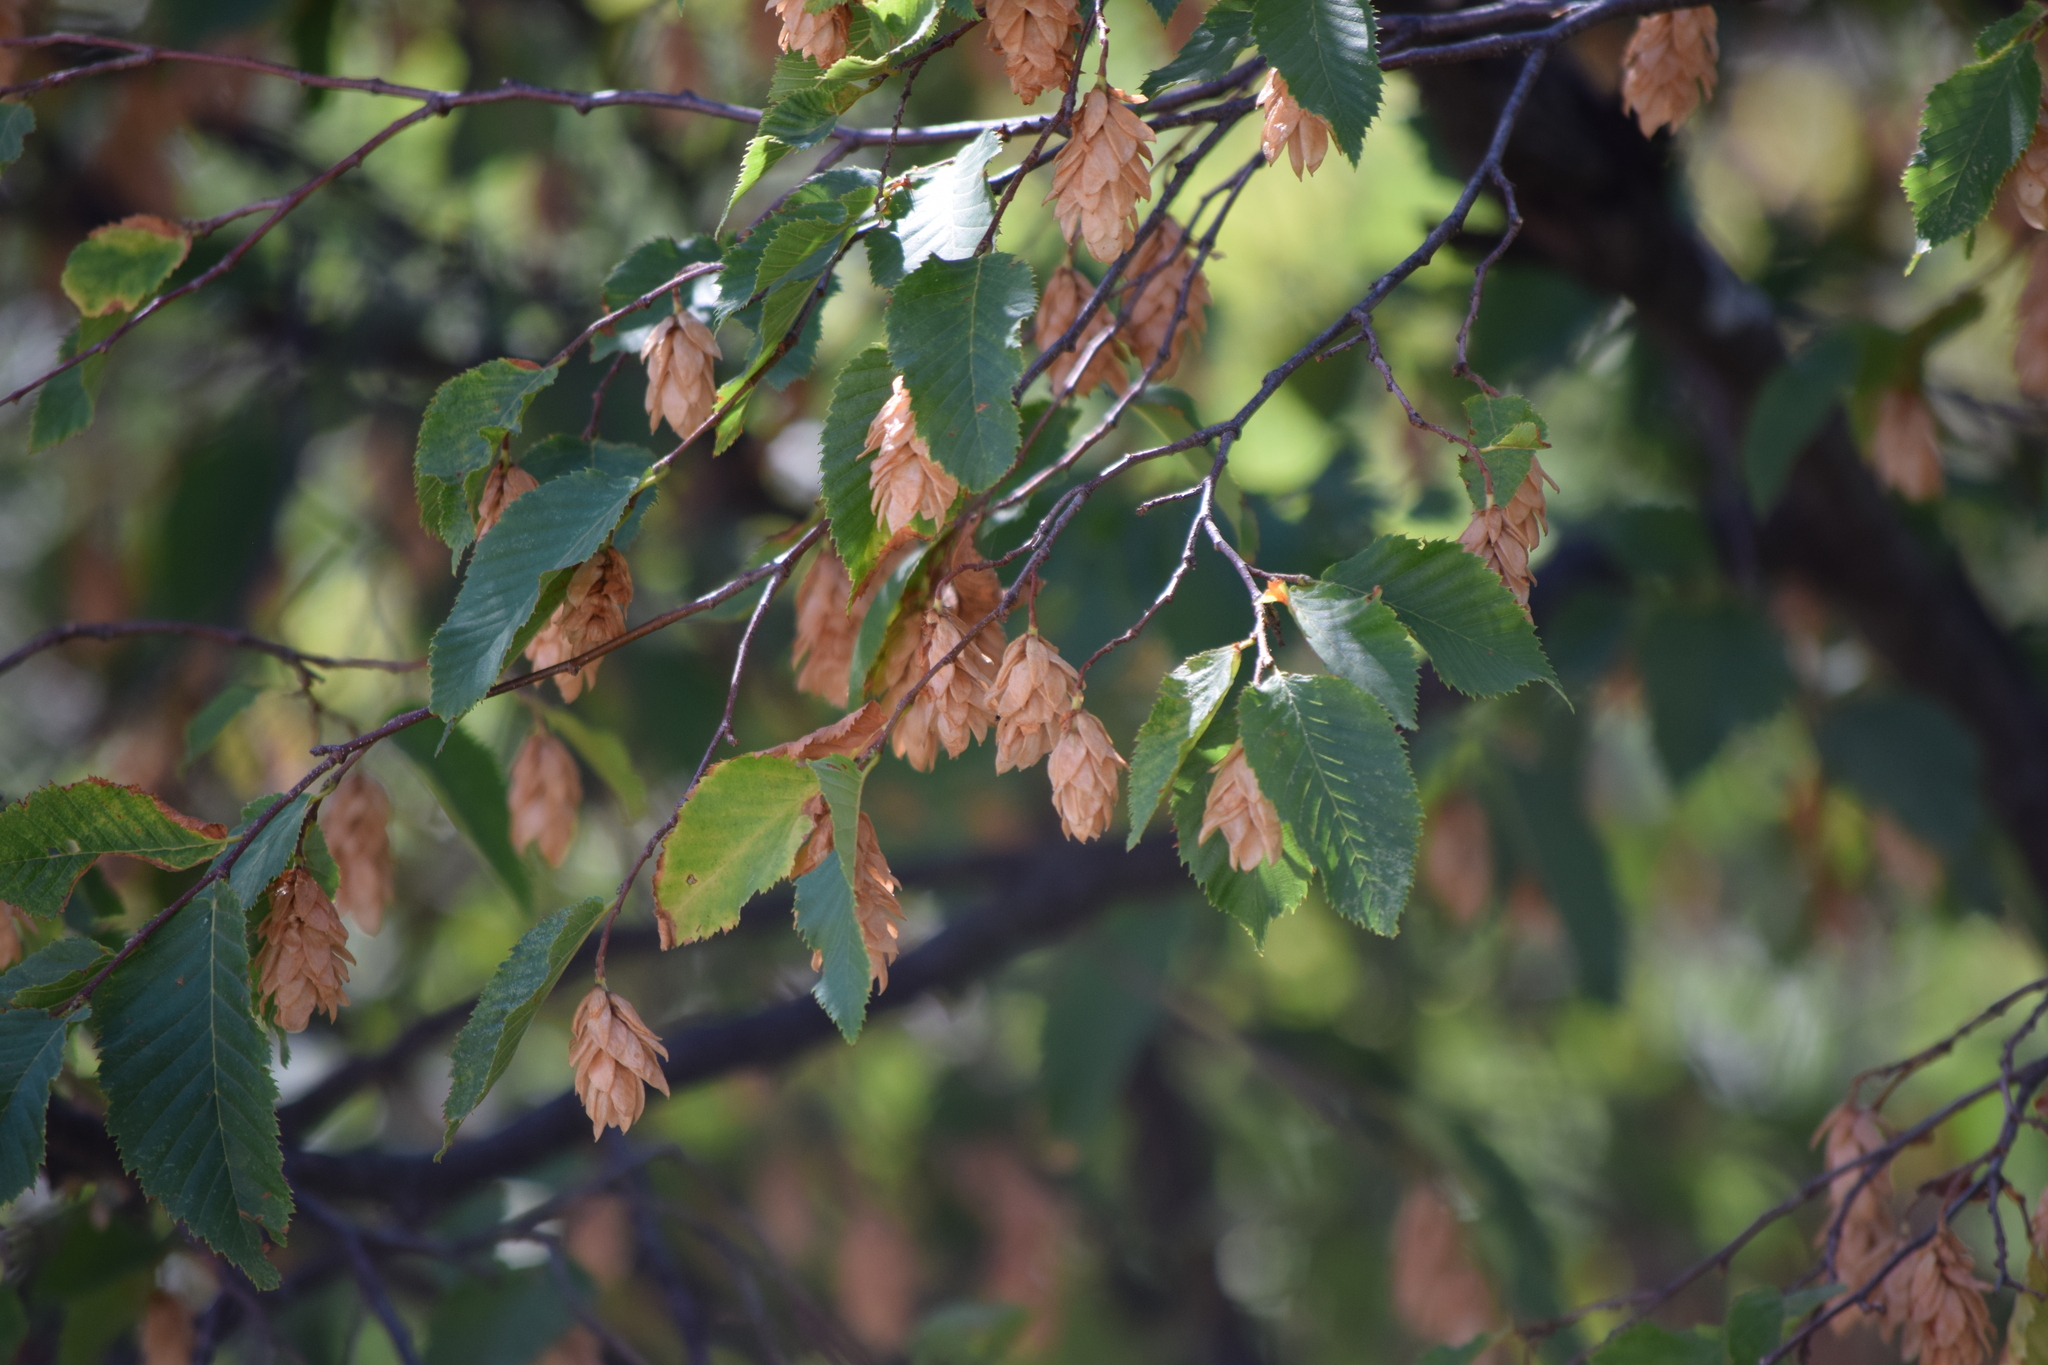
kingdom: Plantae
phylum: Tracheophyta
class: Magnoliopsida
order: Fagales
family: Betulaceae
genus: Ostrya
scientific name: Ostrya carpinifolia
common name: European hop-hornbeam
